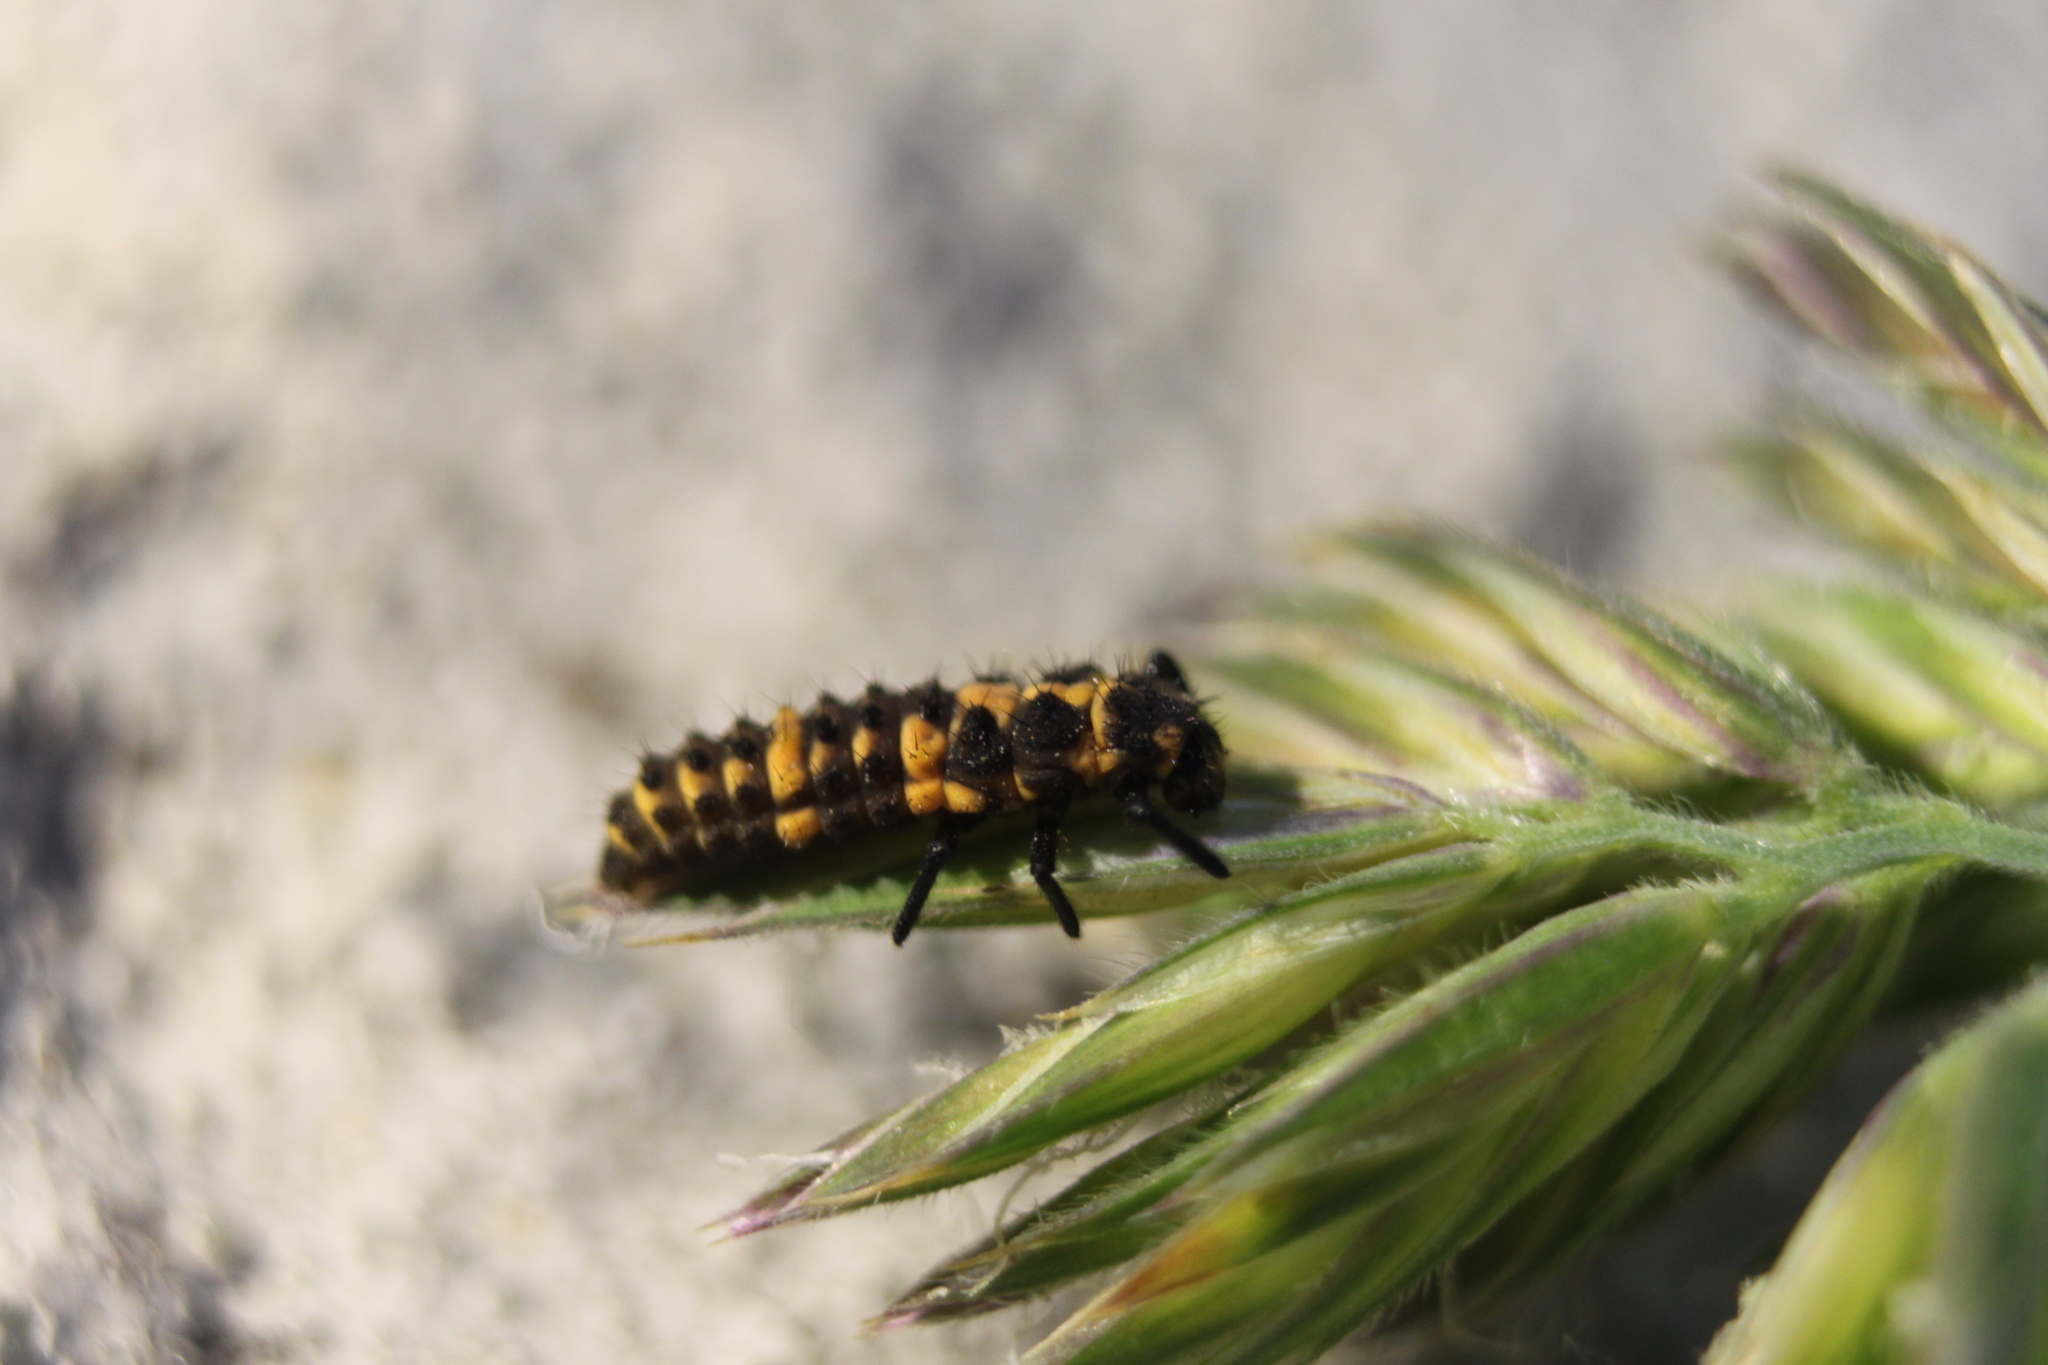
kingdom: Animalia
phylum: Arthropoda
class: Insecta
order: Coleoptera
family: Coccinellidae
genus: Coleomegilla
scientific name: Coleomegilla maculata
